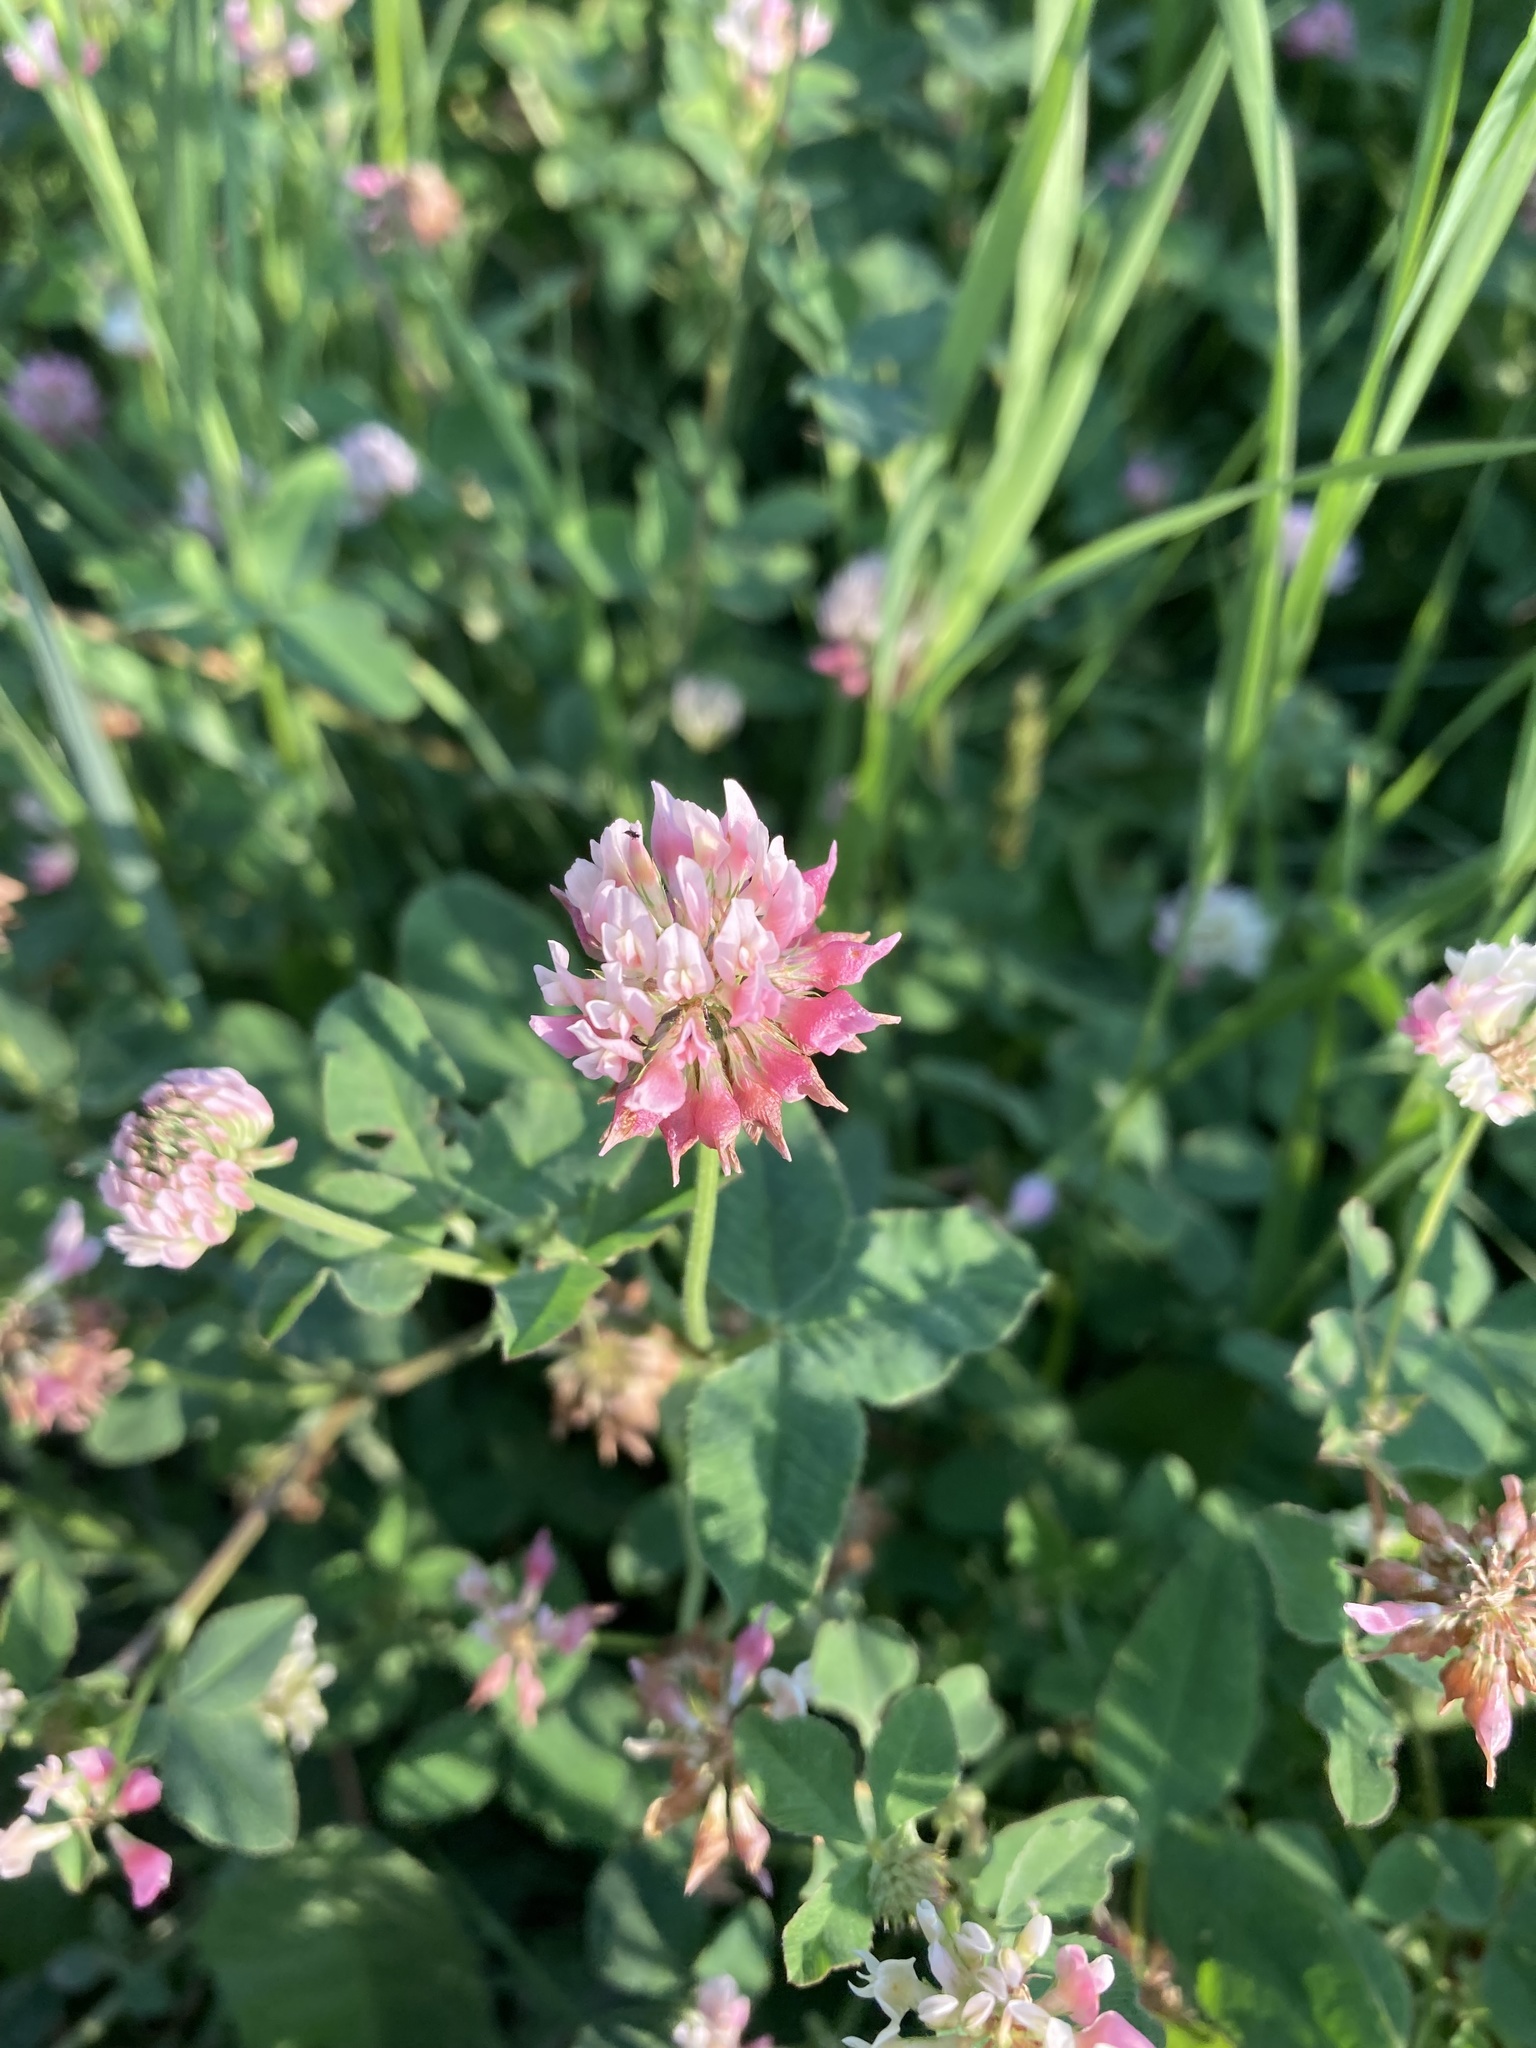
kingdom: Plantae
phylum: Tracheophyta
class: Magnoliopsida
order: Fabales
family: Fabaceae
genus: Trifolium
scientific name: Trifolium hybridum
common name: Alsike clover
